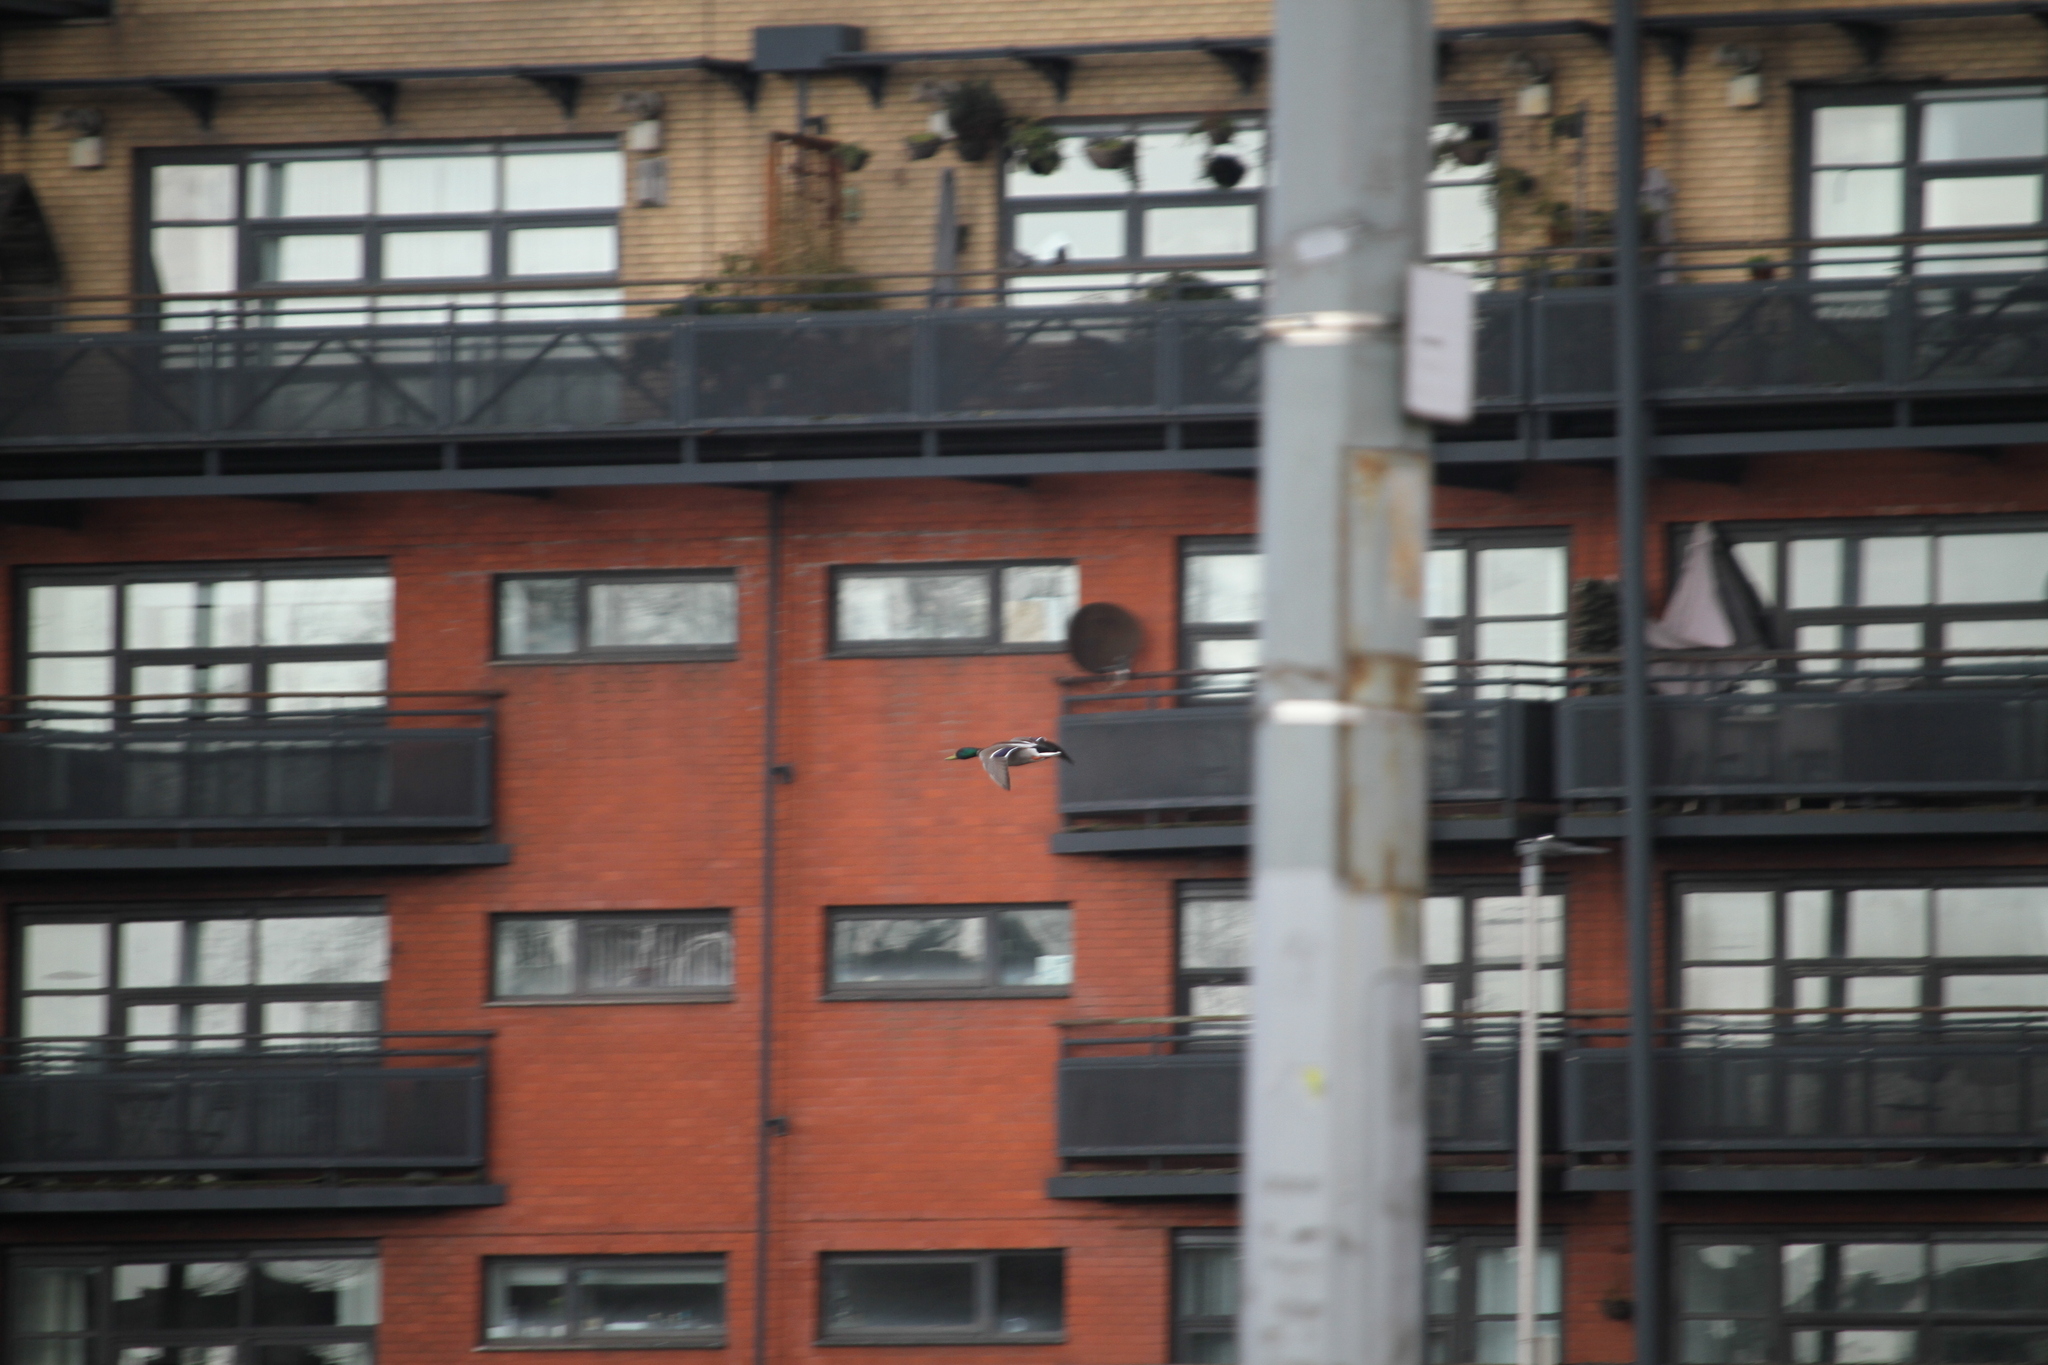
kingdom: Animalia
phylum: Chordata
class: Aves
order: Anseriformes
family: Anatidae
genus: Anas
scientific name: Anas platyrhynchos
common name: Mallard
